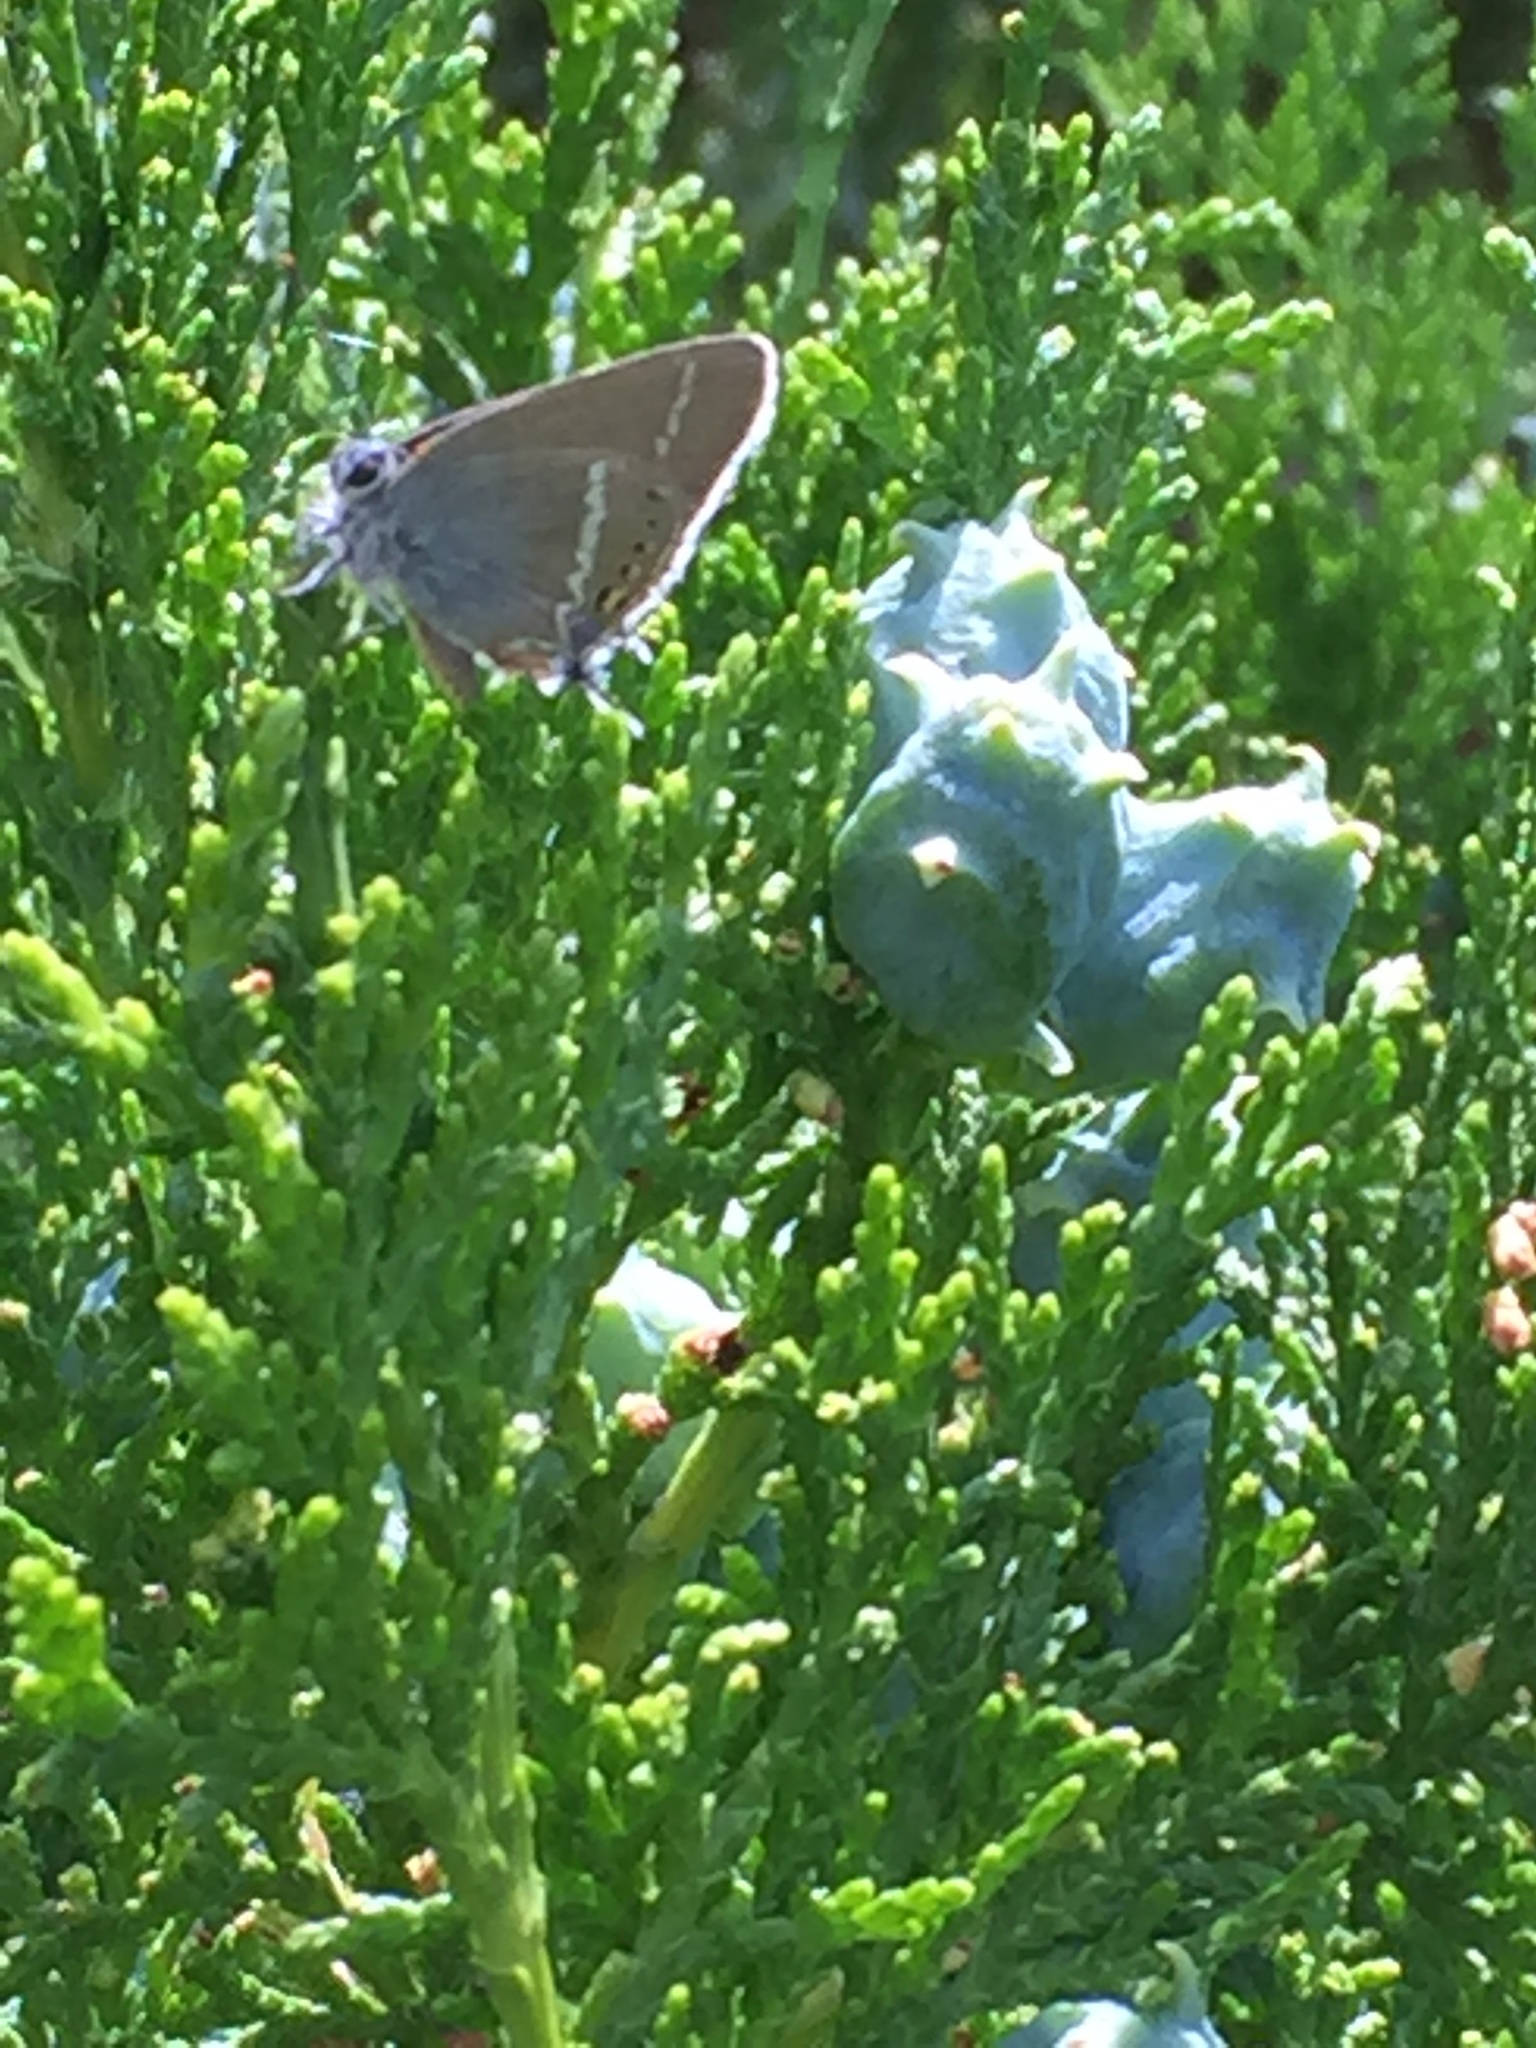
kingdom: Animalia
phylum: Arthropoda
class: Insecta
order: Lepidoptera
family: Lycaenidae
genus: Tuttiola
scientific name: Tuttiola spini
